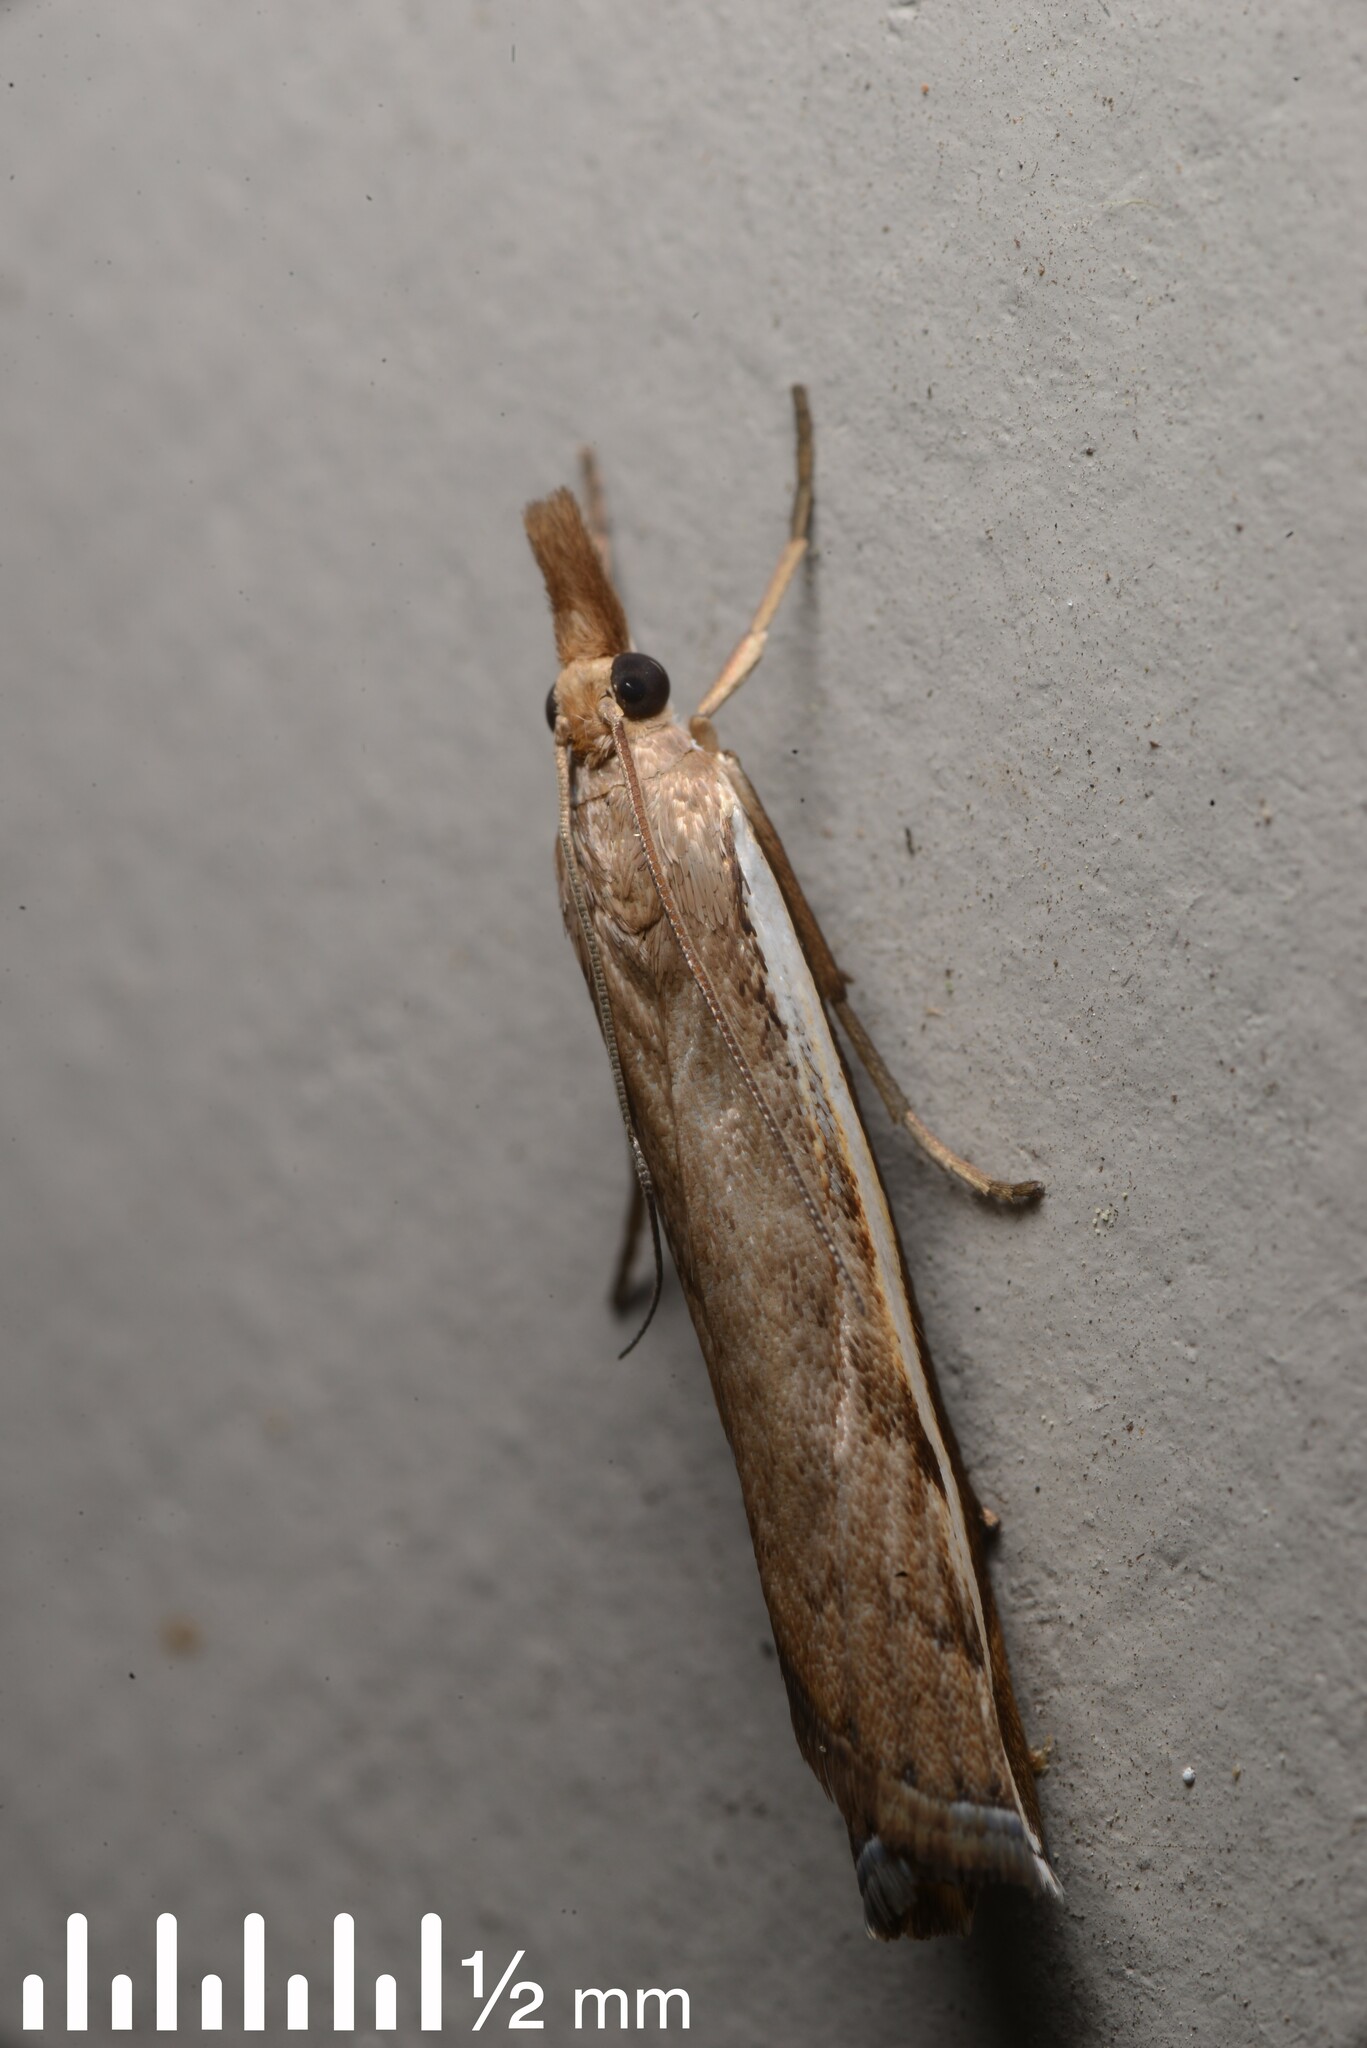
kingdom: Animalia
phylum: Arthropoda
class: Insecta
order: Lepidoptera
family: Crambidae
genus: Orocrambus
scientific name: Orocrambus flexuosellus
